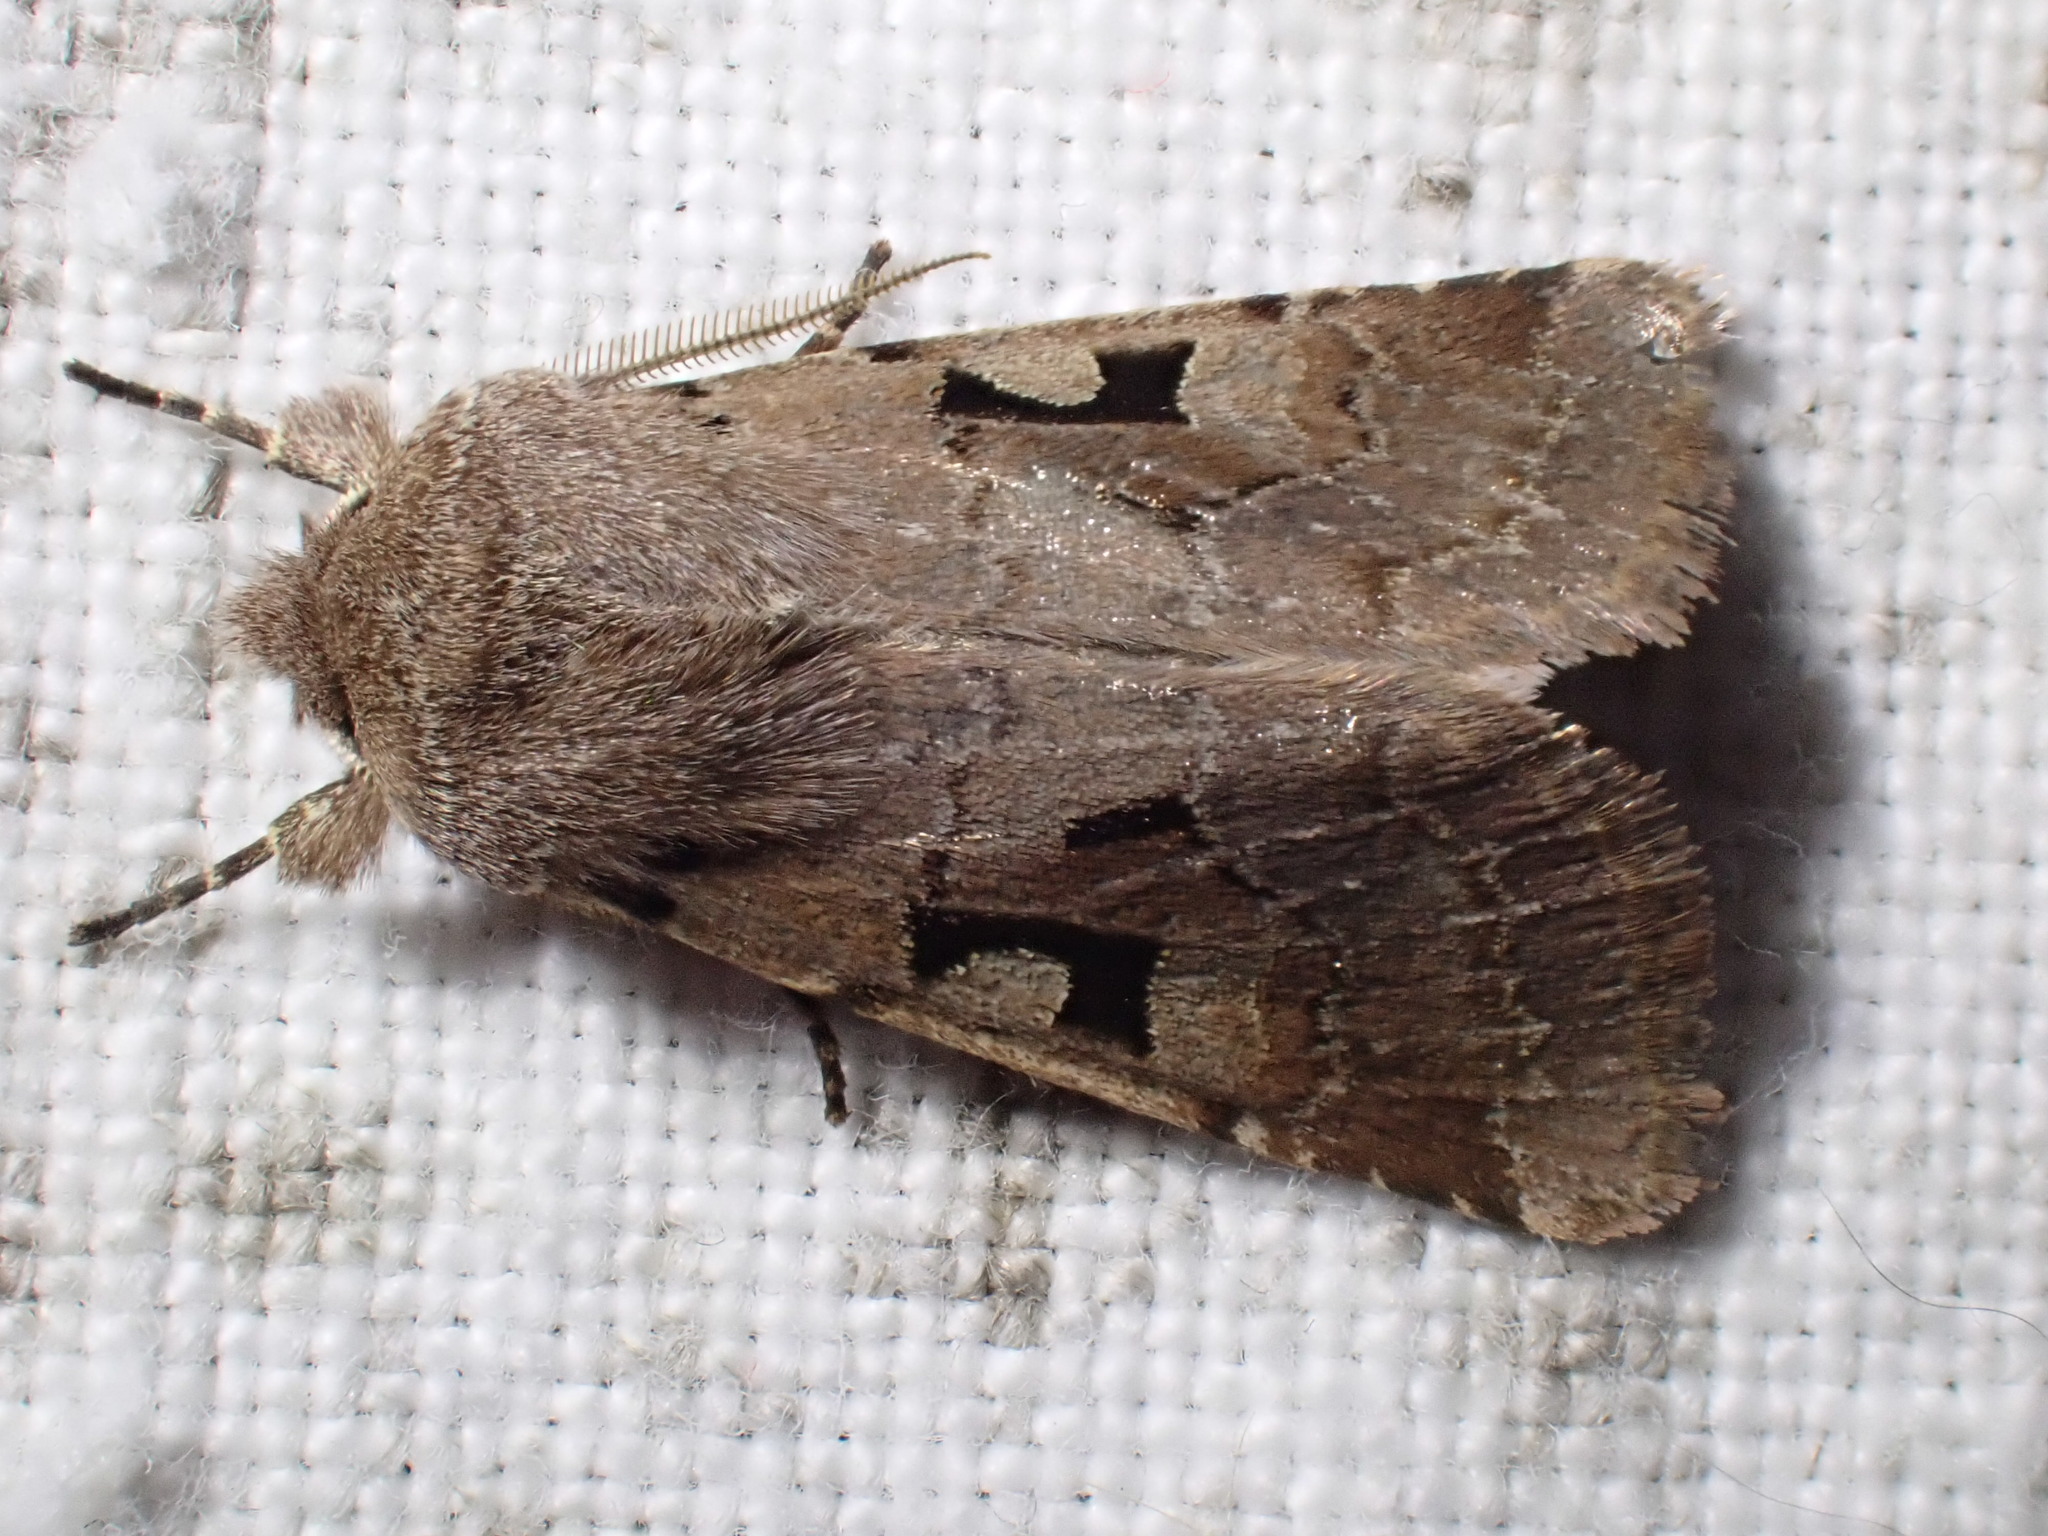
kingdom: Animalia
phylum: Arthropoda
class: Insecta
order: Lepidoptera
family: Noctuidae
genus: Orthosia
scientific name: Orthosia gothica
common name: Hebrew character
